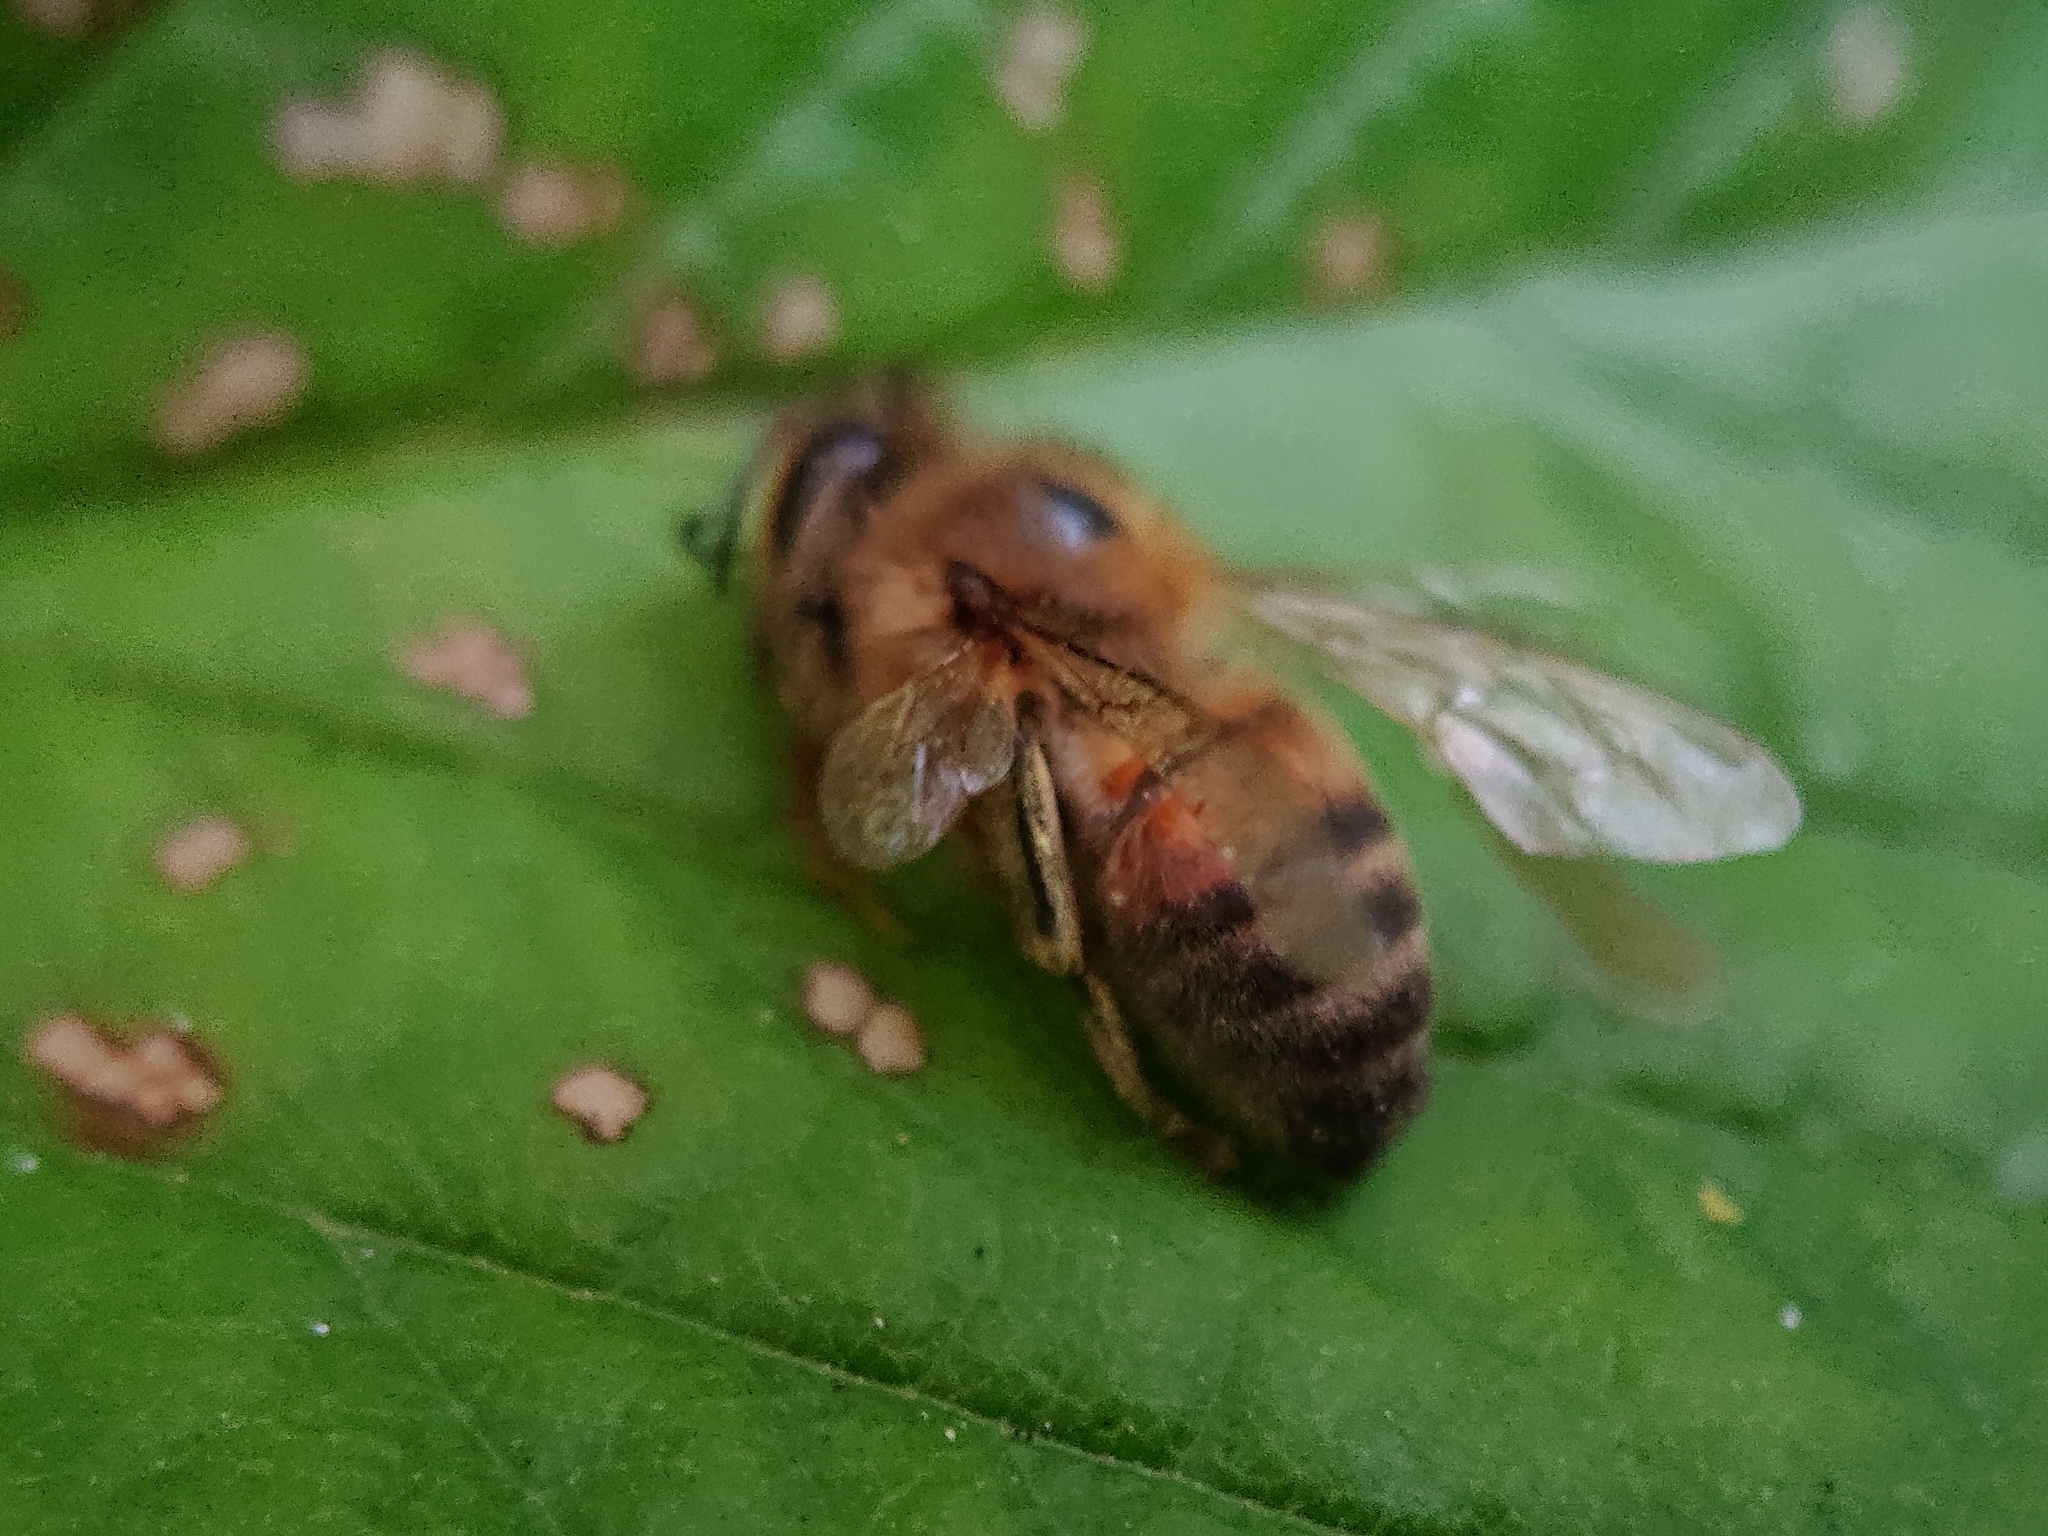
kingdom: Animalia
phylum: Arthropoda
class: Insecta
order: Hymenoptera
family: Apidae
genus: Apis
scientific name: Apis mellifera
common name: Honey bee
